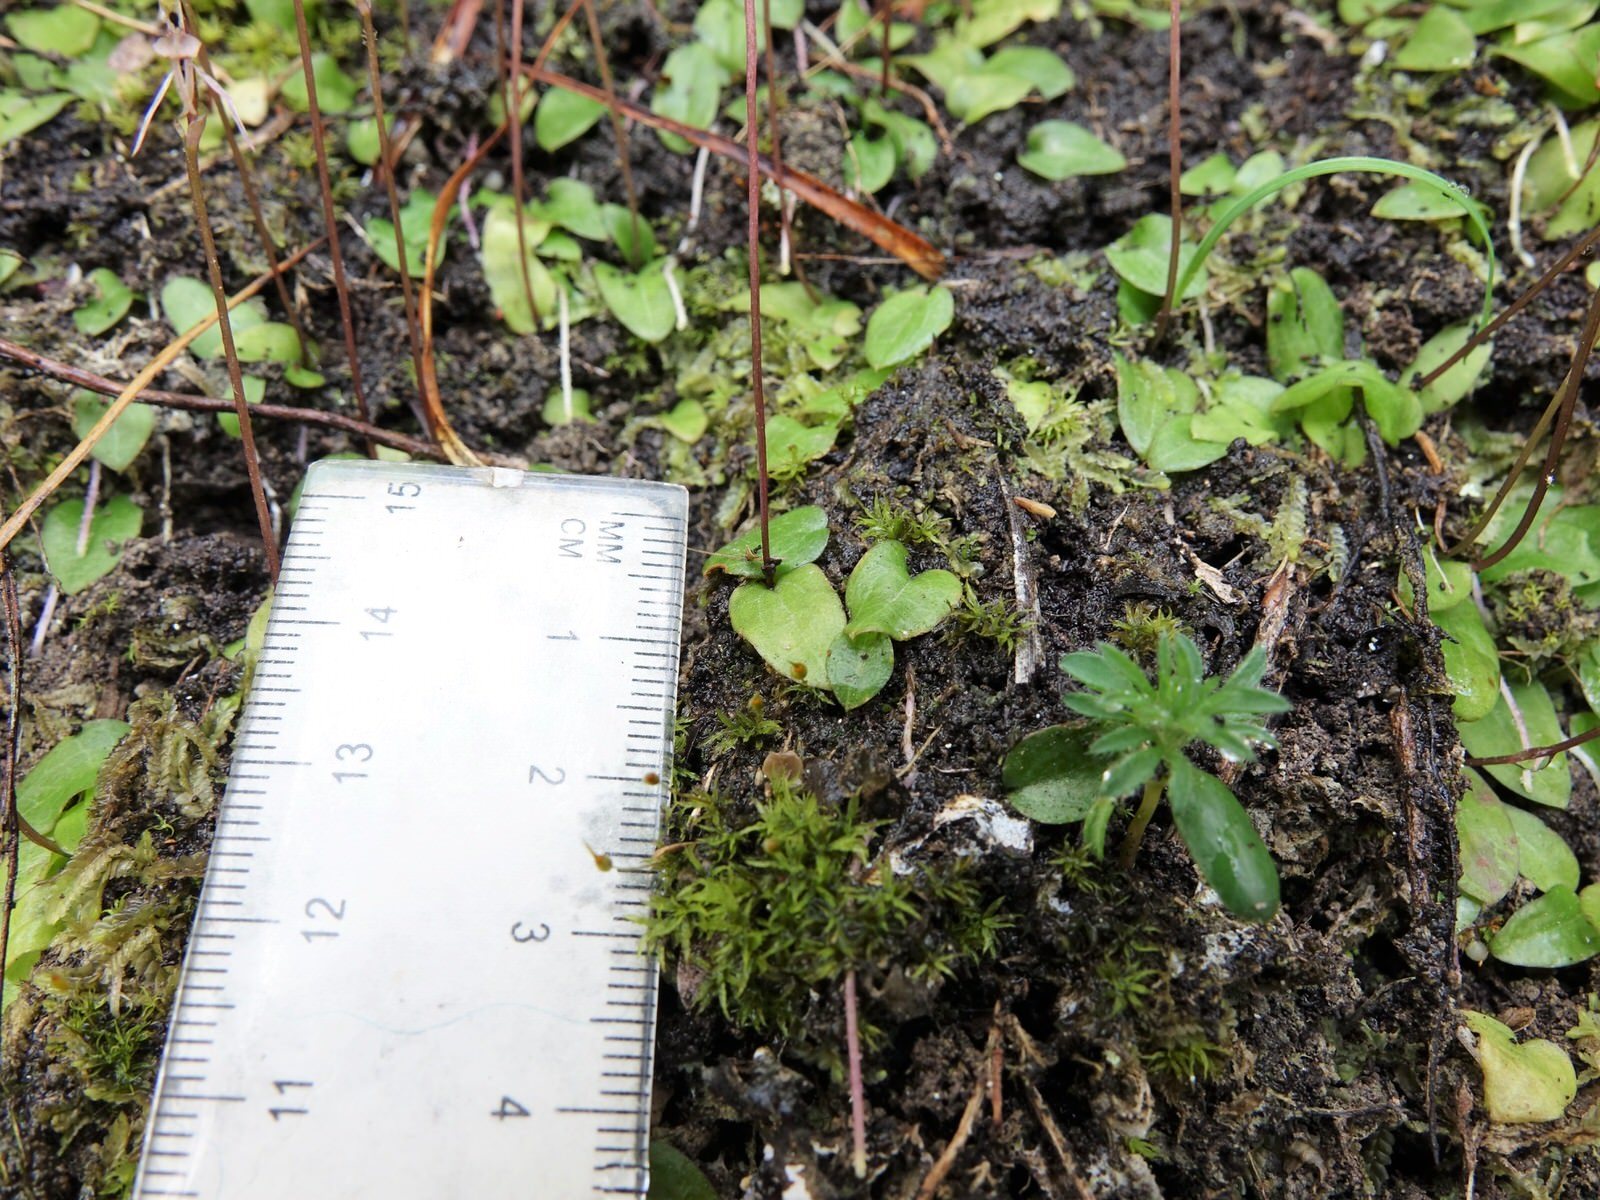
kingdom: Plantae
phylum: Tracheophyta
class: Liliopsida
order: Asparagales
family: Orchidaceae
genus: Cyrtostylis
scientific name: Cyrtostylis oblonga
